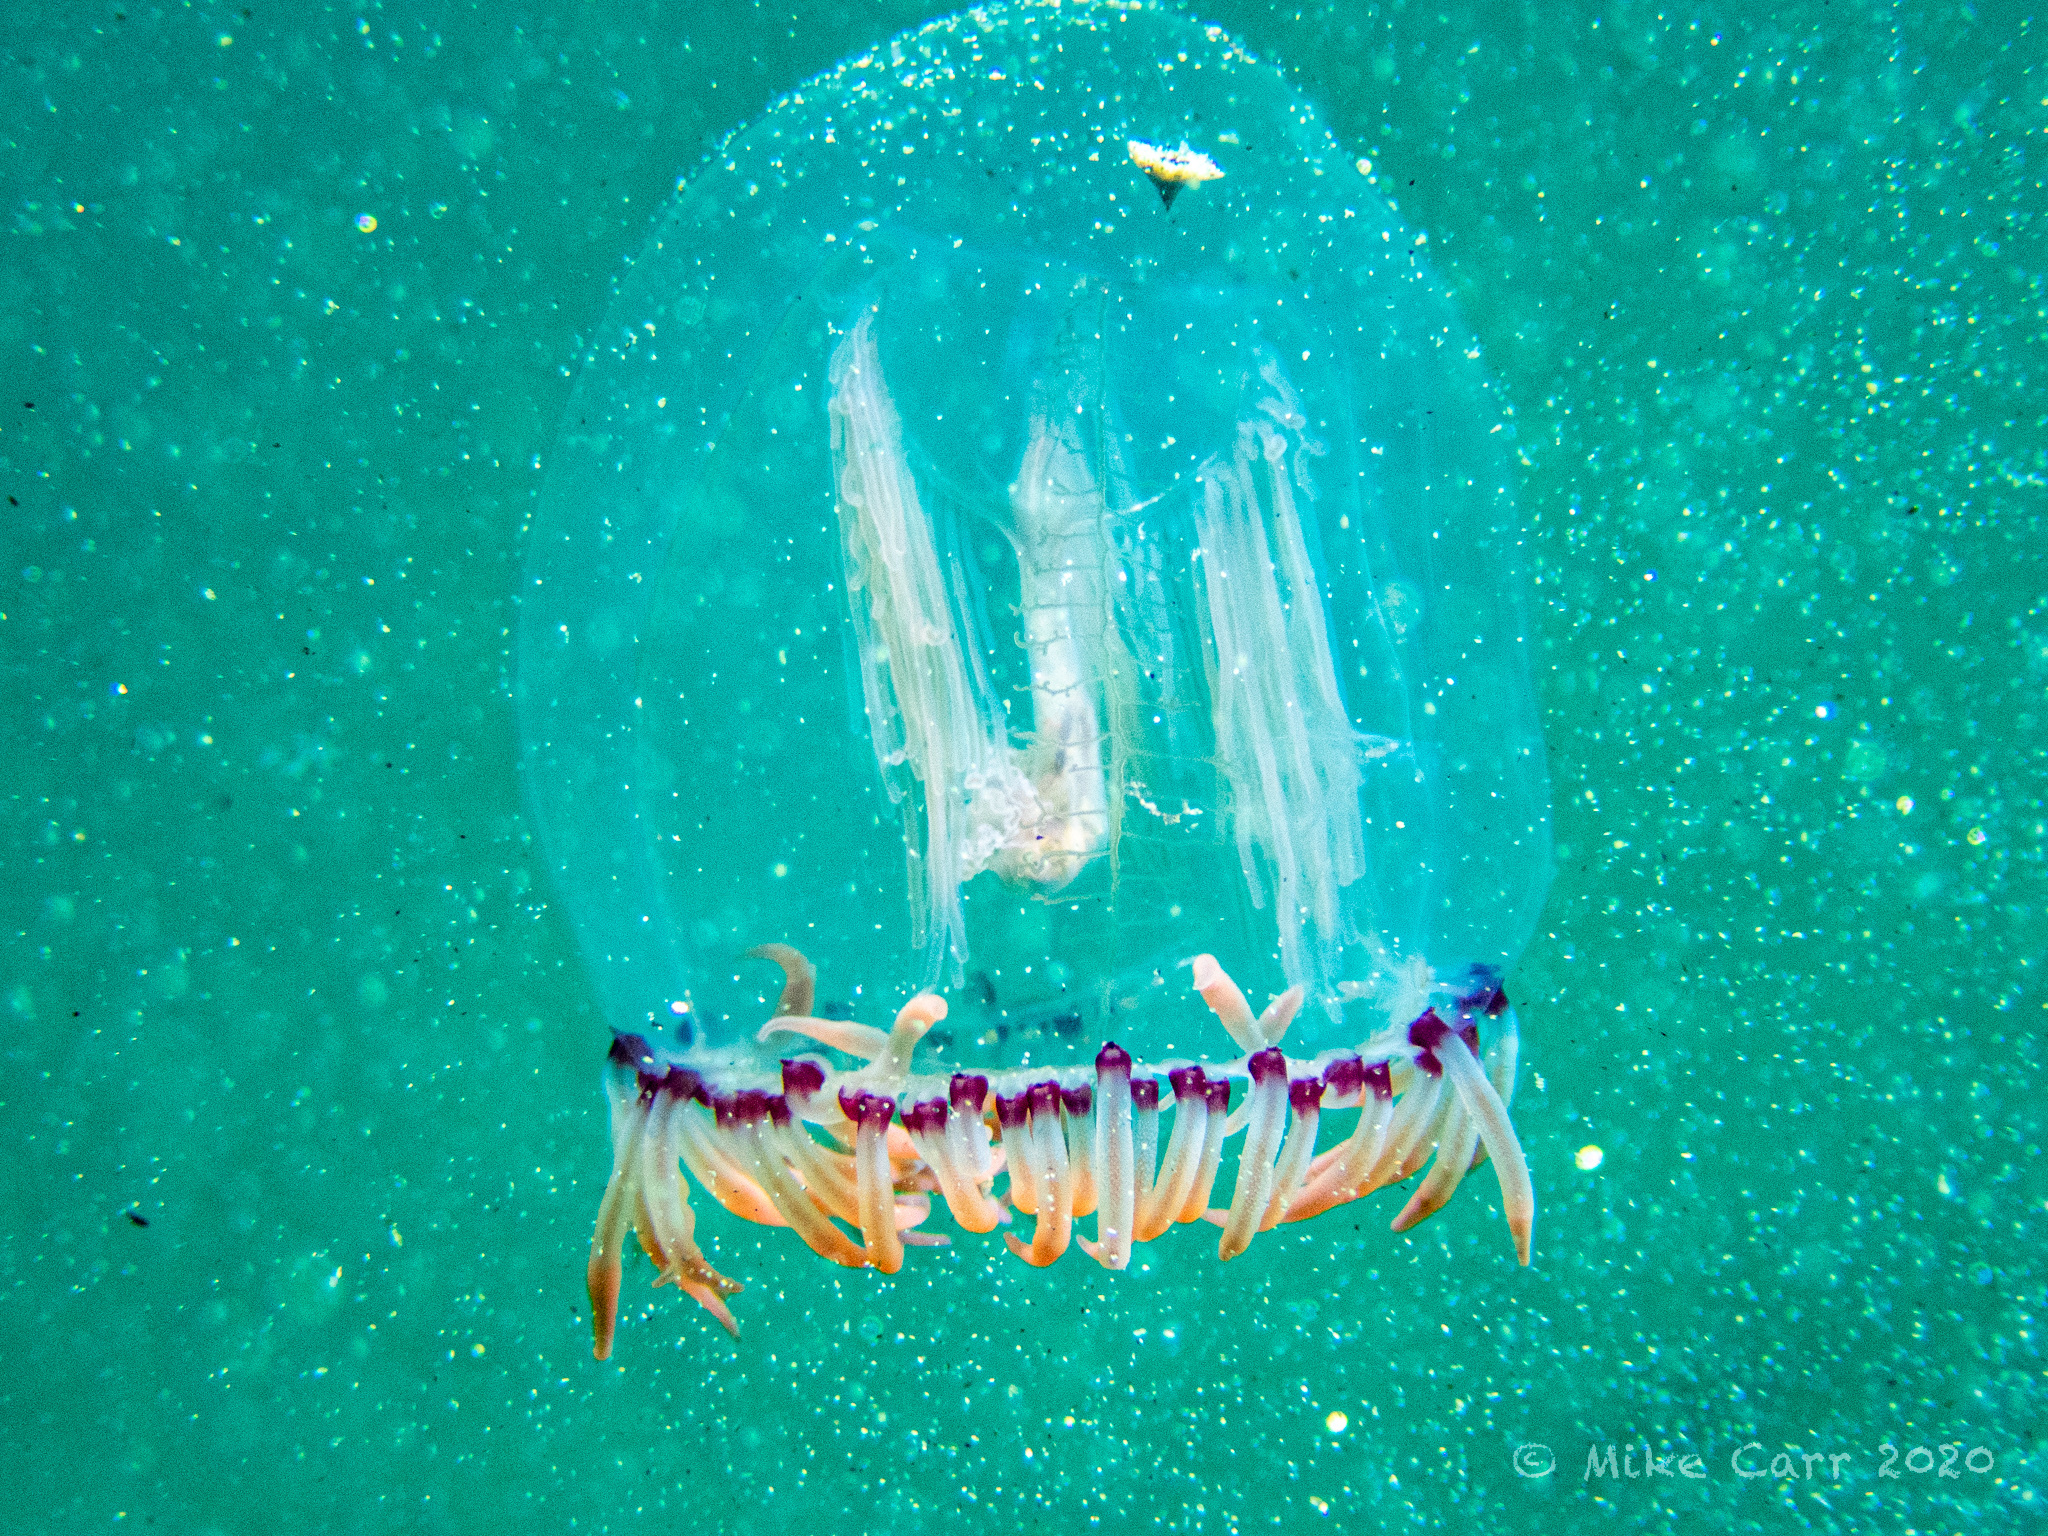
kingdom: Animalia
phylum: Cnidaria
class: Hydrozoa
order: Anthoathecata
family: Corynidae
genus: Polyorchis
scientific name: Polyorchis penicillatus
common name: Penicillate jellyfish
